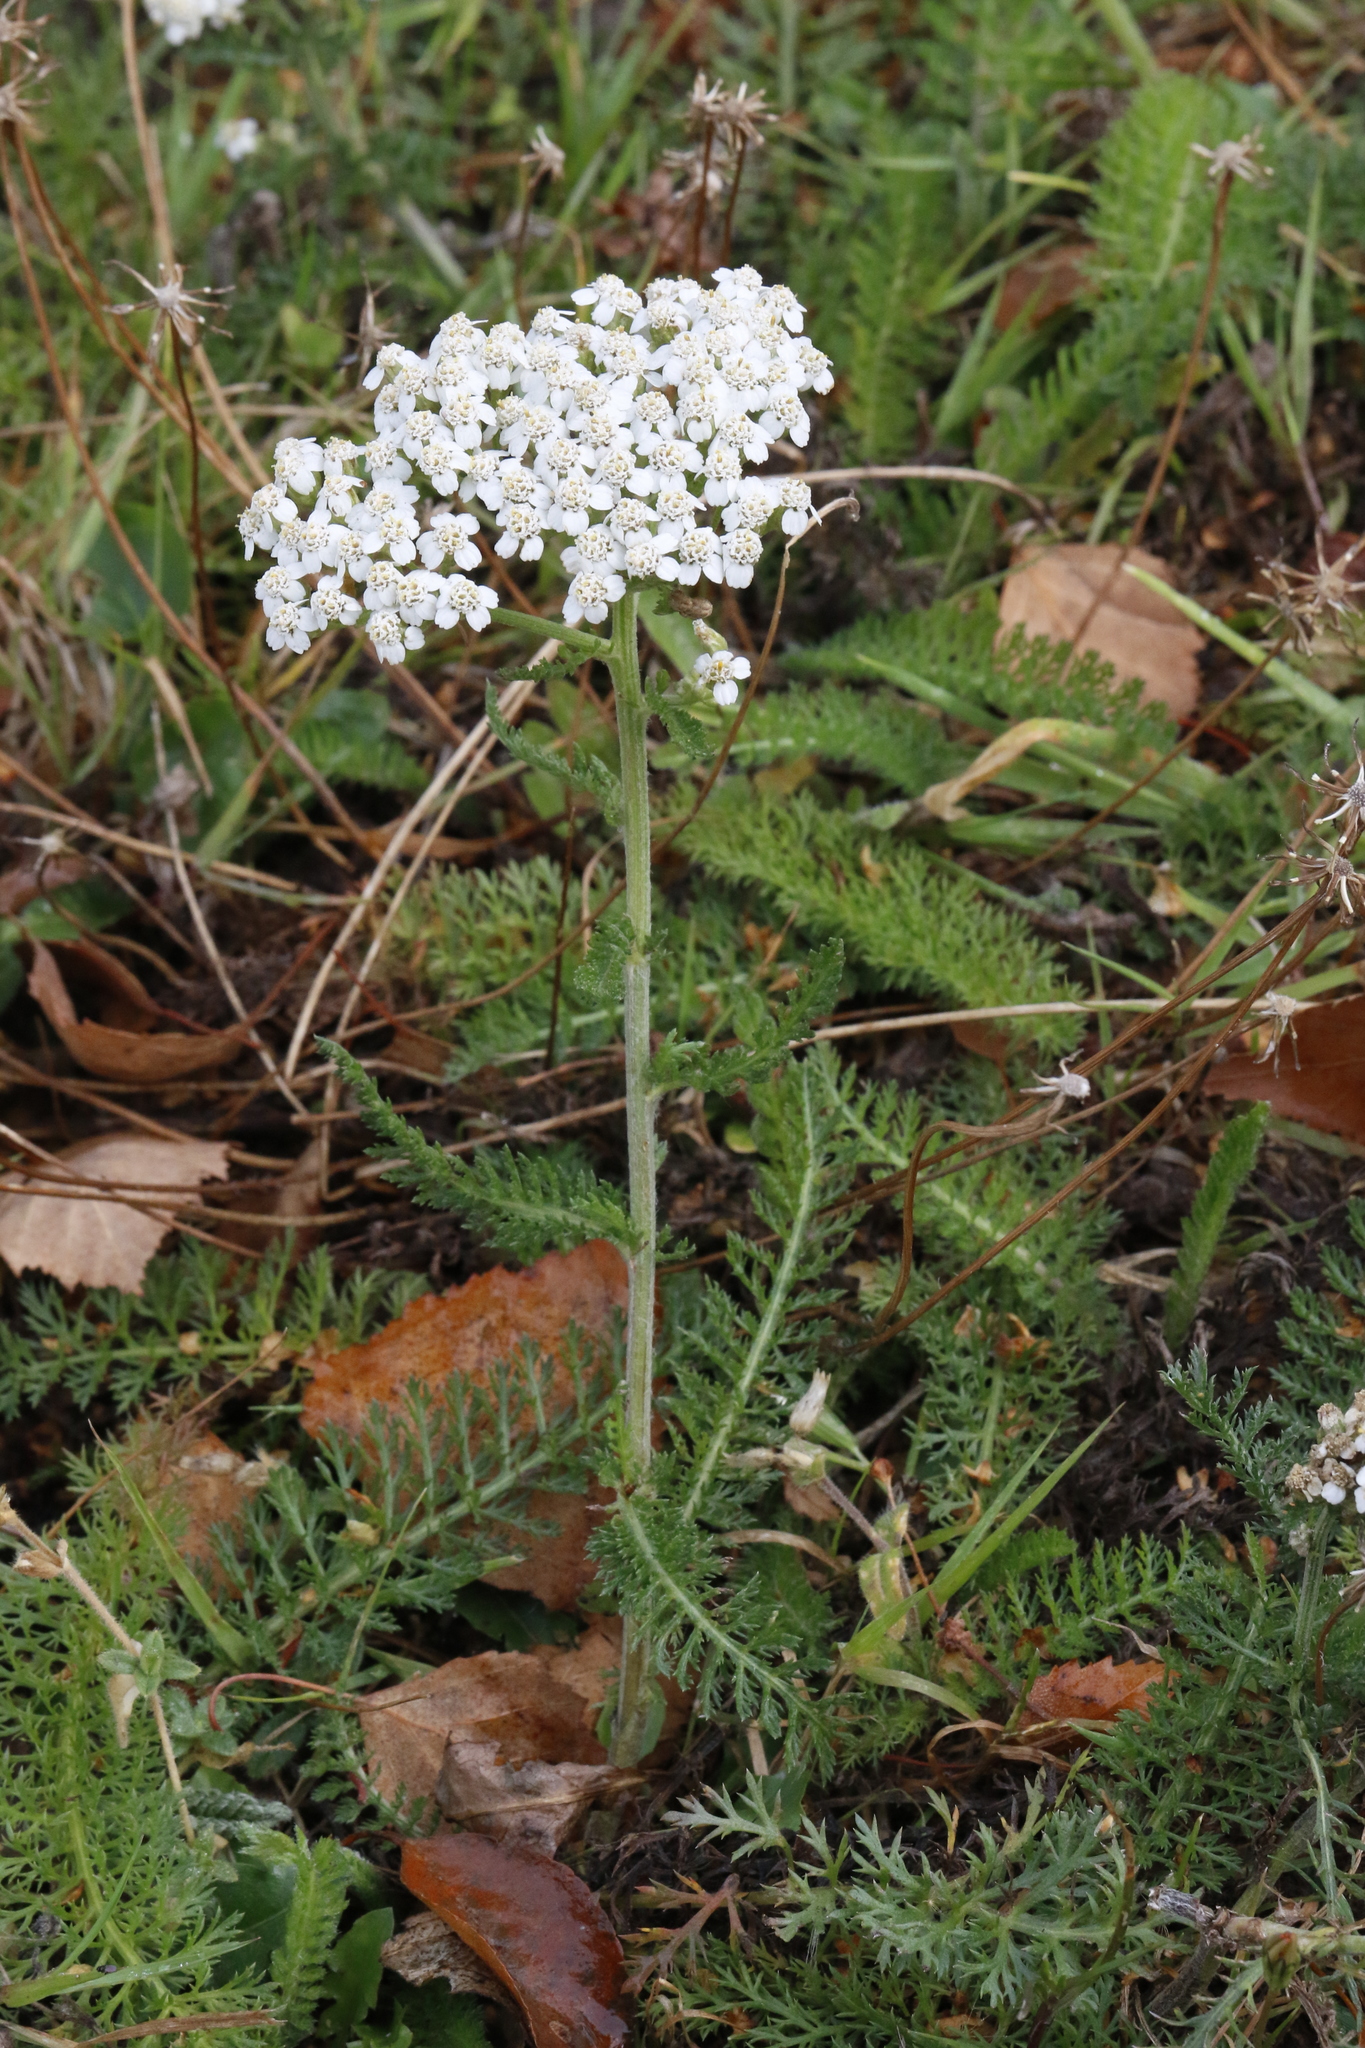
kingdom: Plantae
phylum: Tracheophyta
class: Magnoliopsida
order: Asterales
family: Asteraceae
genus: Achillea
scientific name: Achillea millefolium
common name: Yarrow
